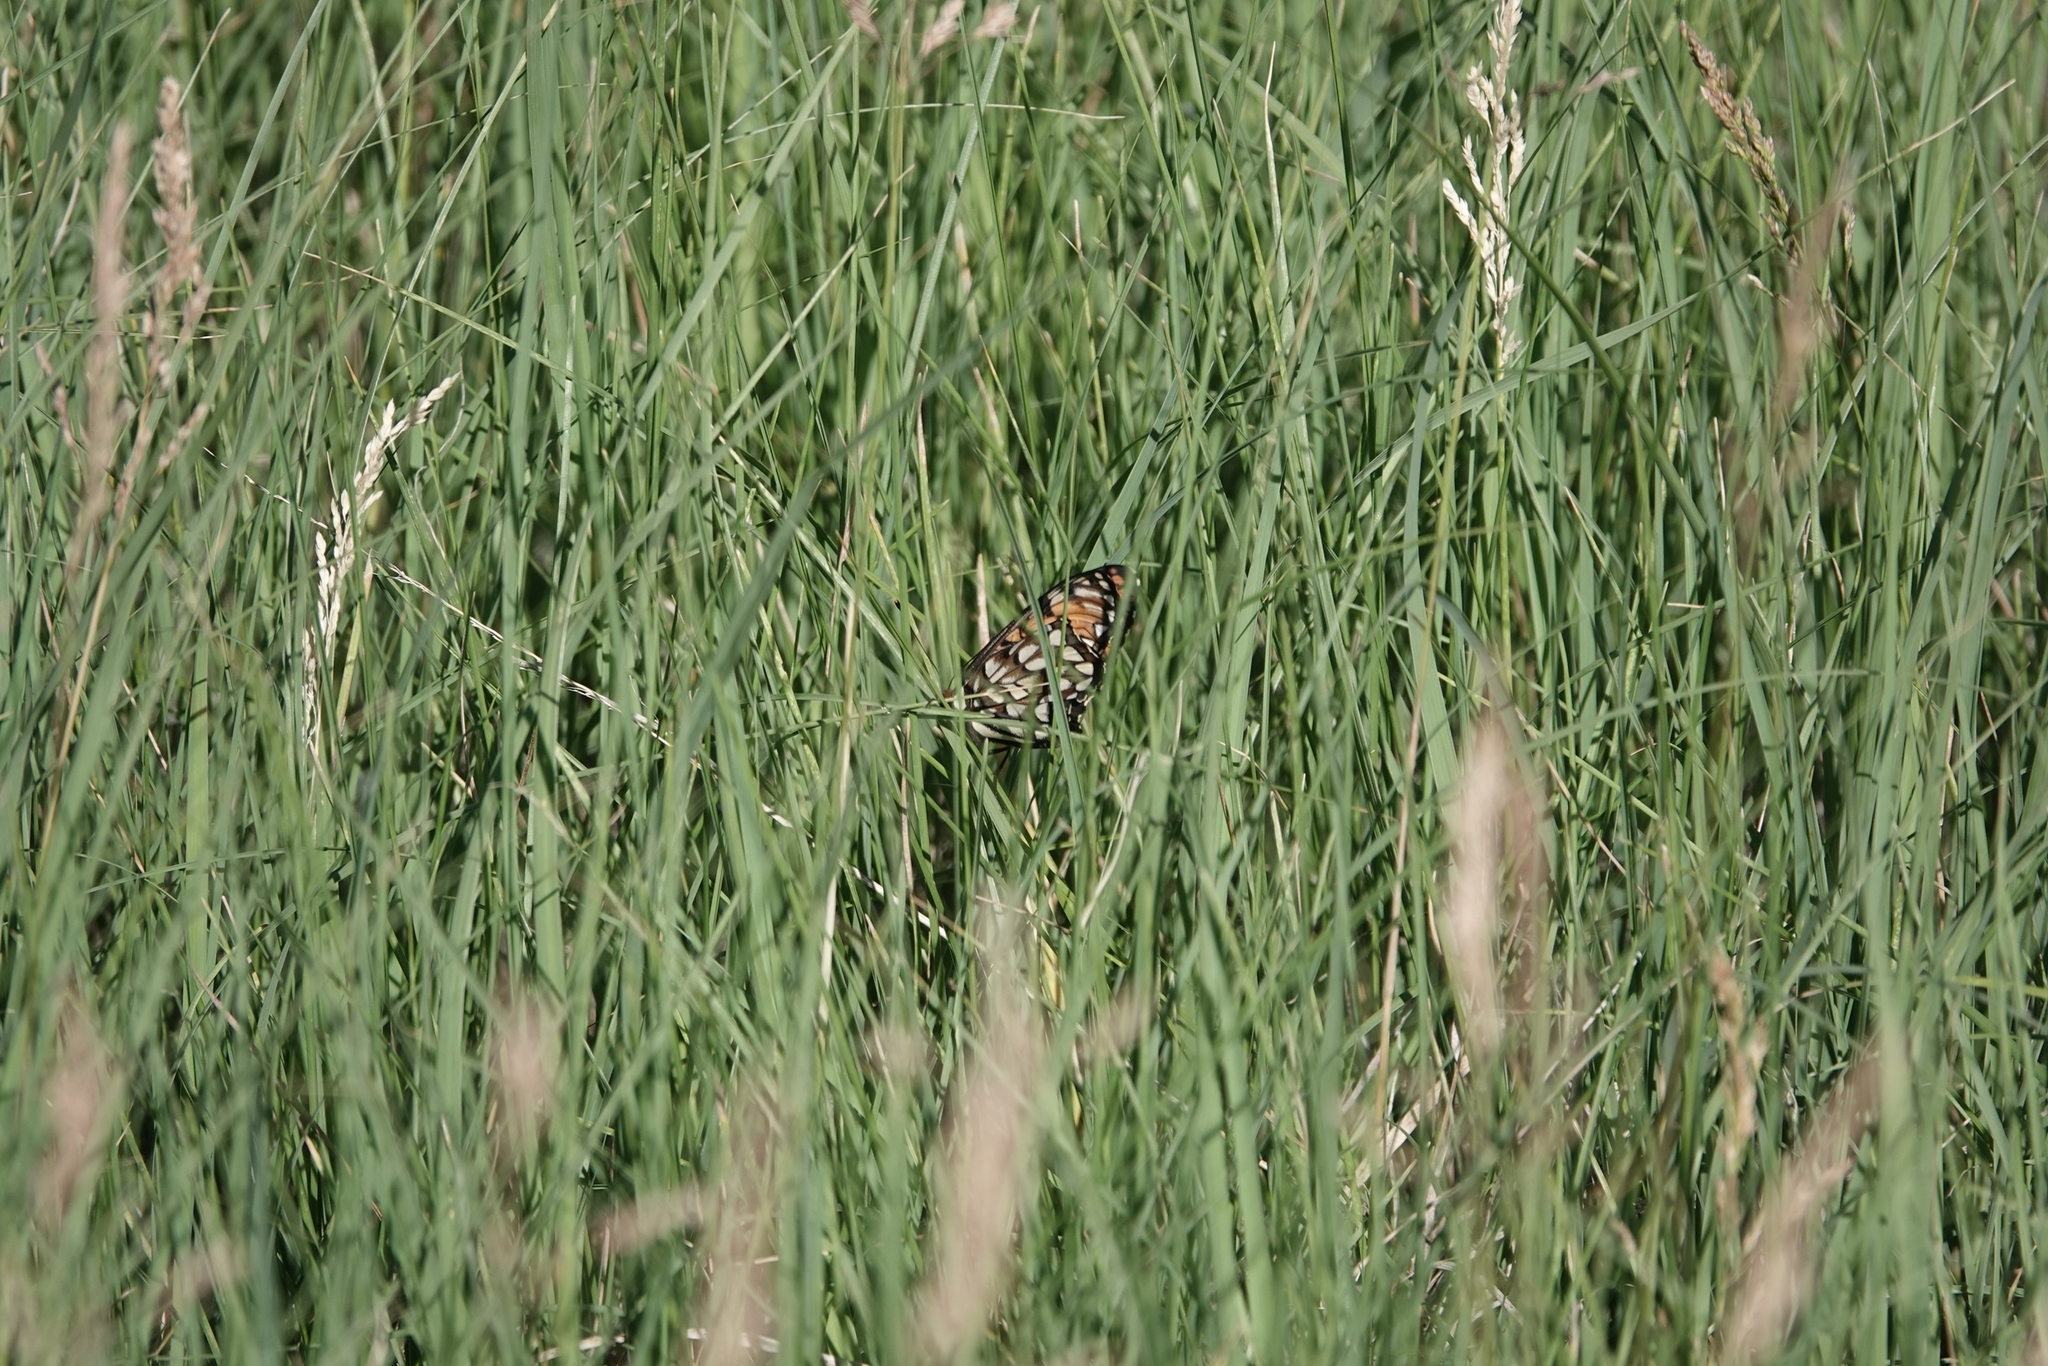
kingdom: Animalia
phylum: Arthropoda
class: Insecta
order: Lepidoptera
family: Nymphalidae
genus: Speyeria
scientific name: Speyeria idalia
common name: Regal fritillary
